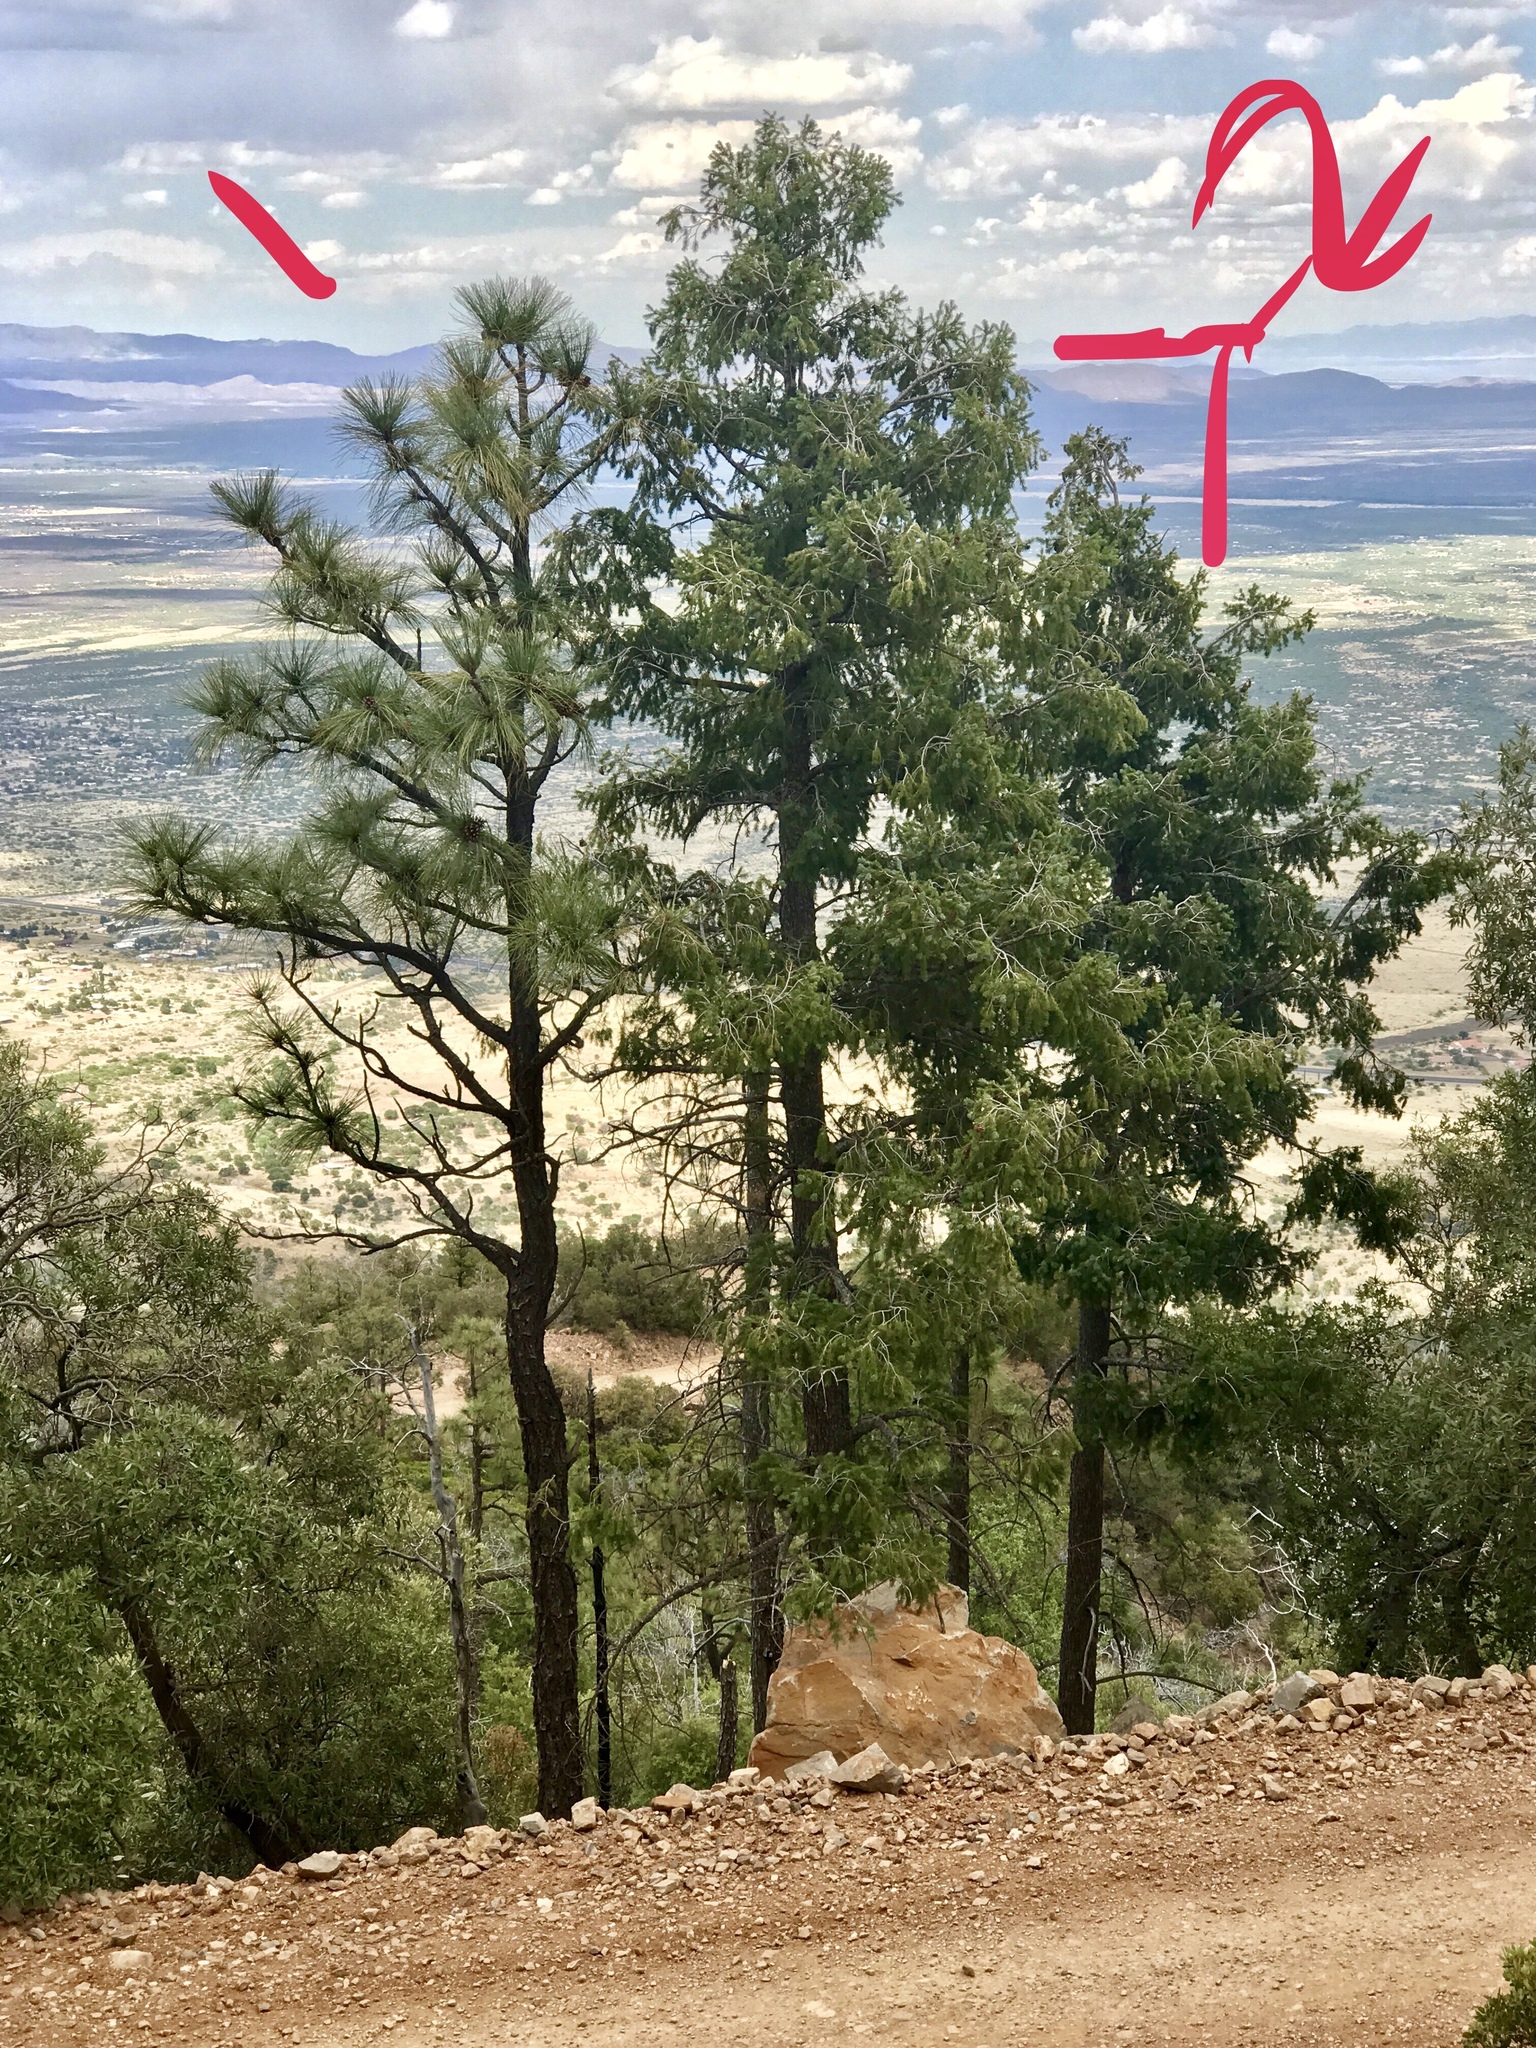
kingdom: Plantae
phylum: Tracheophyta
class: Pinopsida
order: Pinales
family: Pinaceae
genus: Pinus
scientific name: Pinus engelmannii
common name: Apache pine
